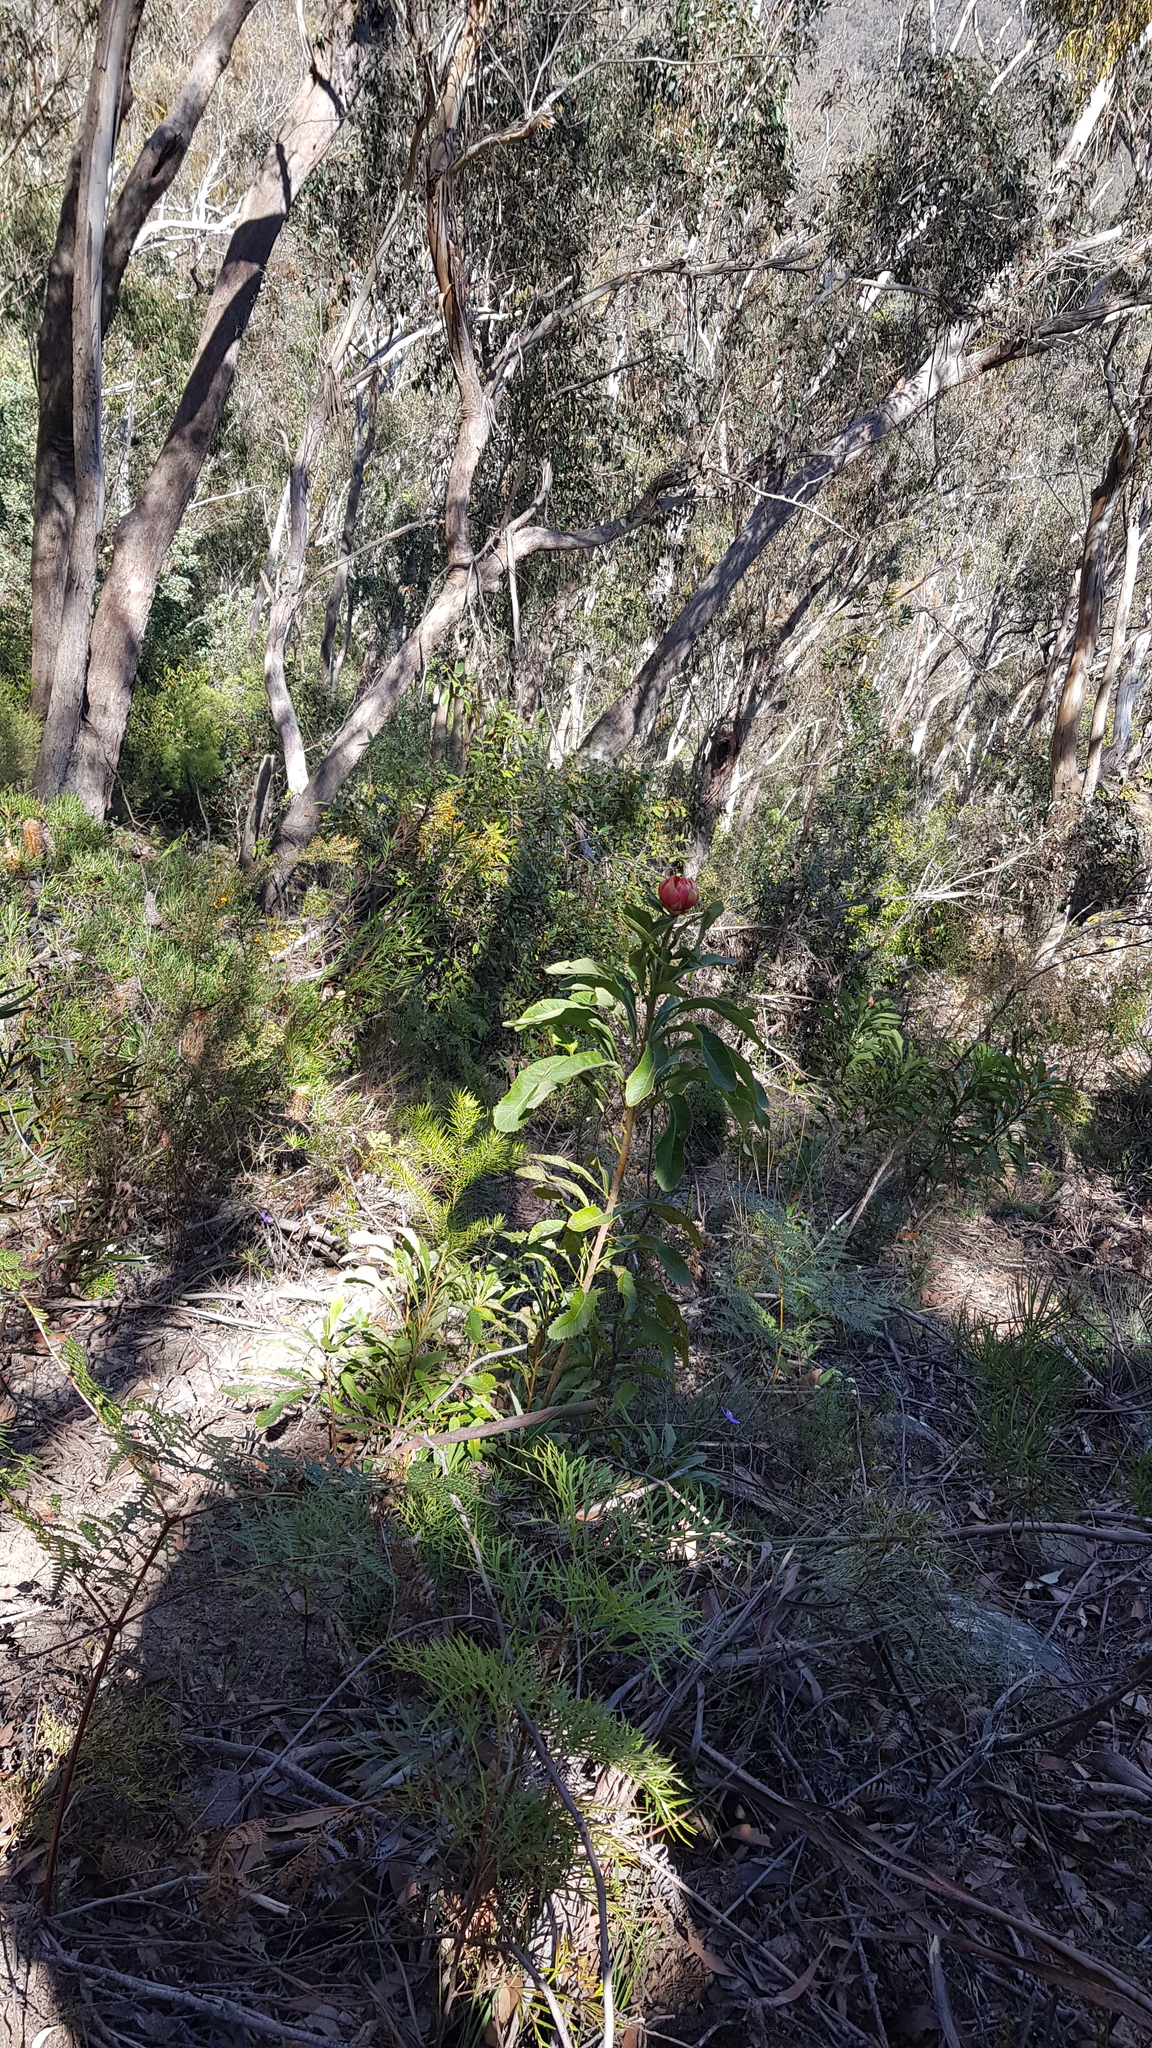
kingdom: Plantae
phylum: Tracheophyta
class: Magnoliopsida
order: Proteales
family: Proteaceae
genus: Telopea
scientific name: Telopea speciosissima
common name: New south wales waratah
